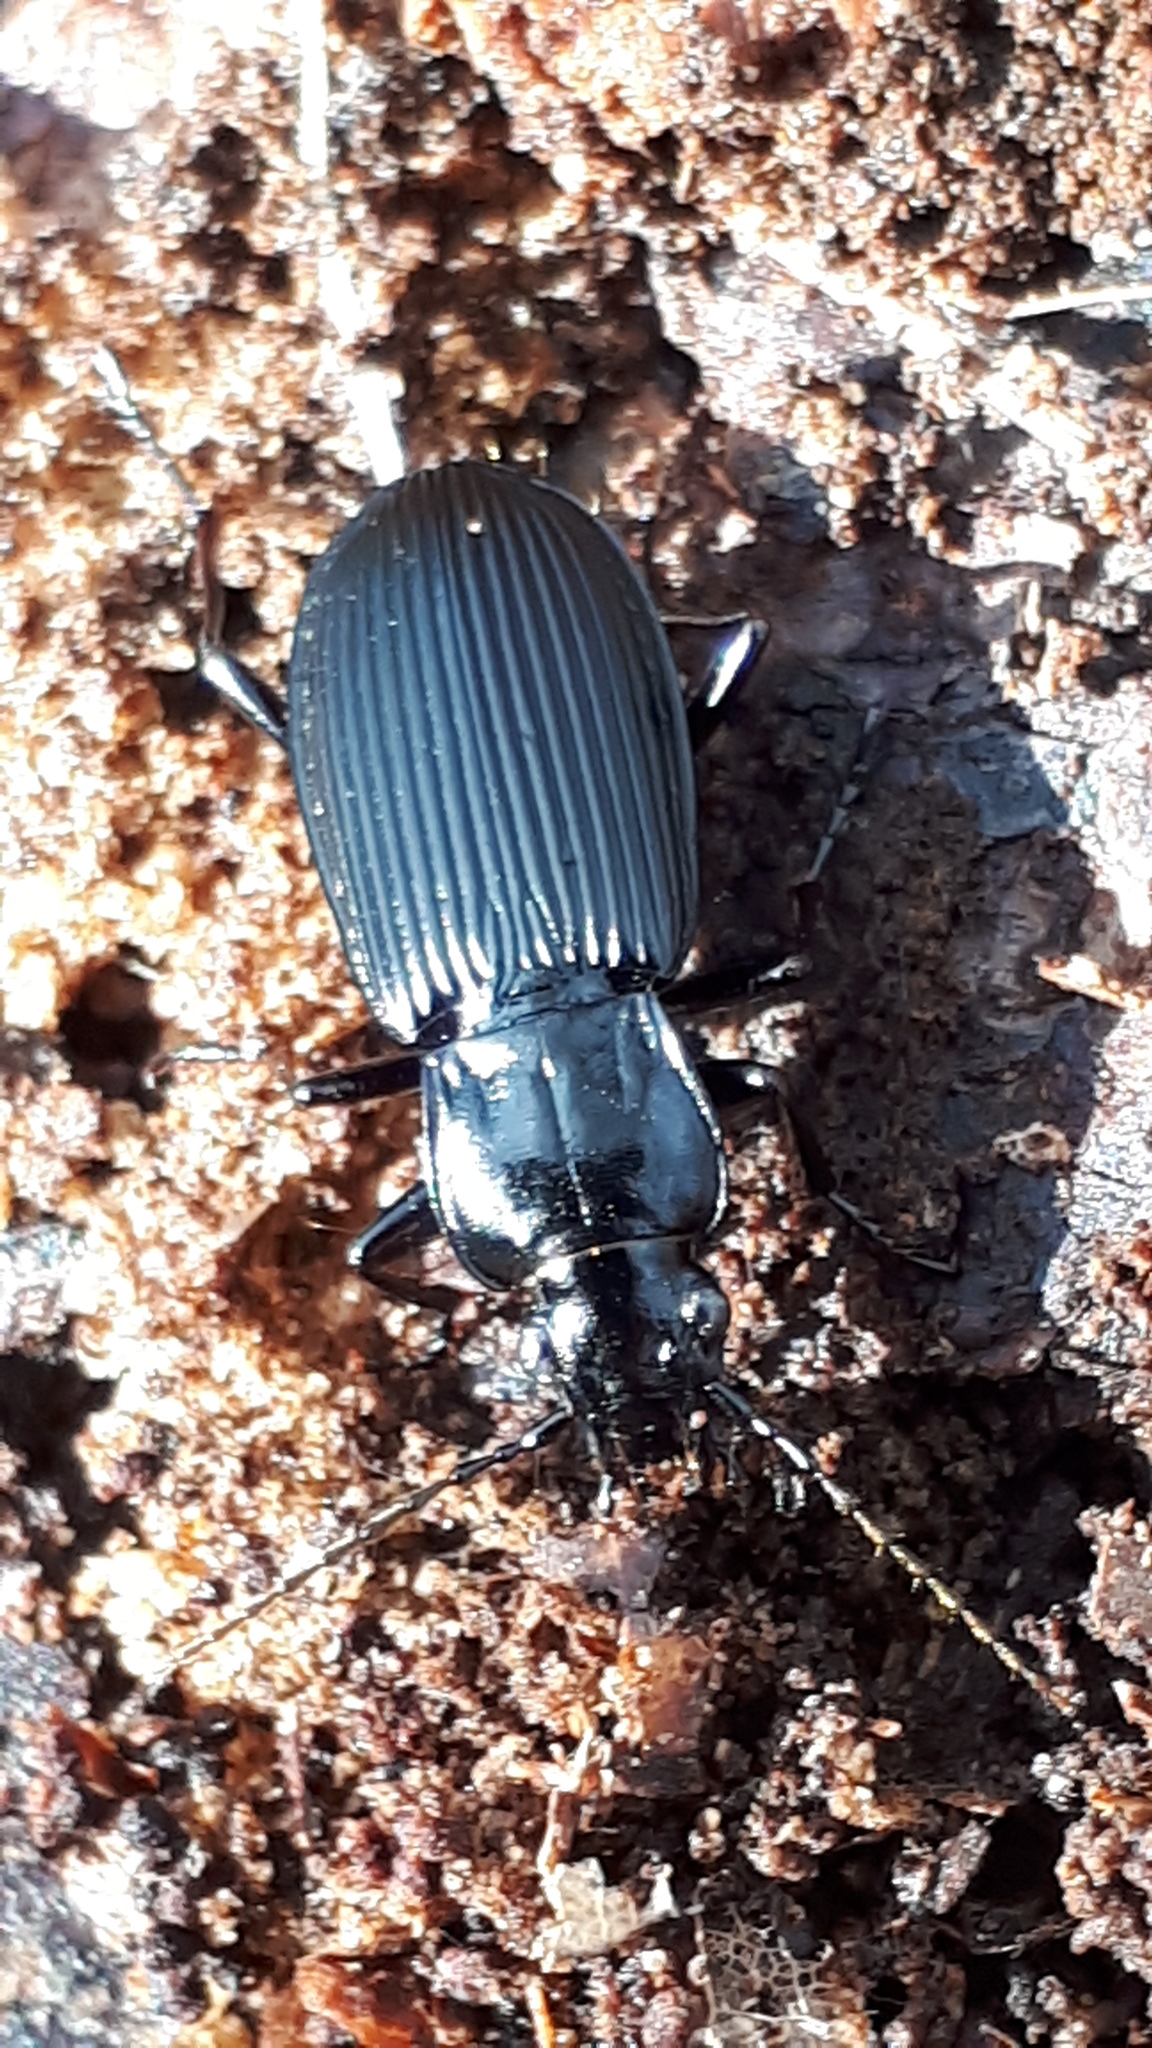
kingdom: Animalia
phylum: Arthropoda
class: Insecta
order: Coleoptera
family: Carabidae
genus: Pterostichus
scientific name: Pterostichus niger
